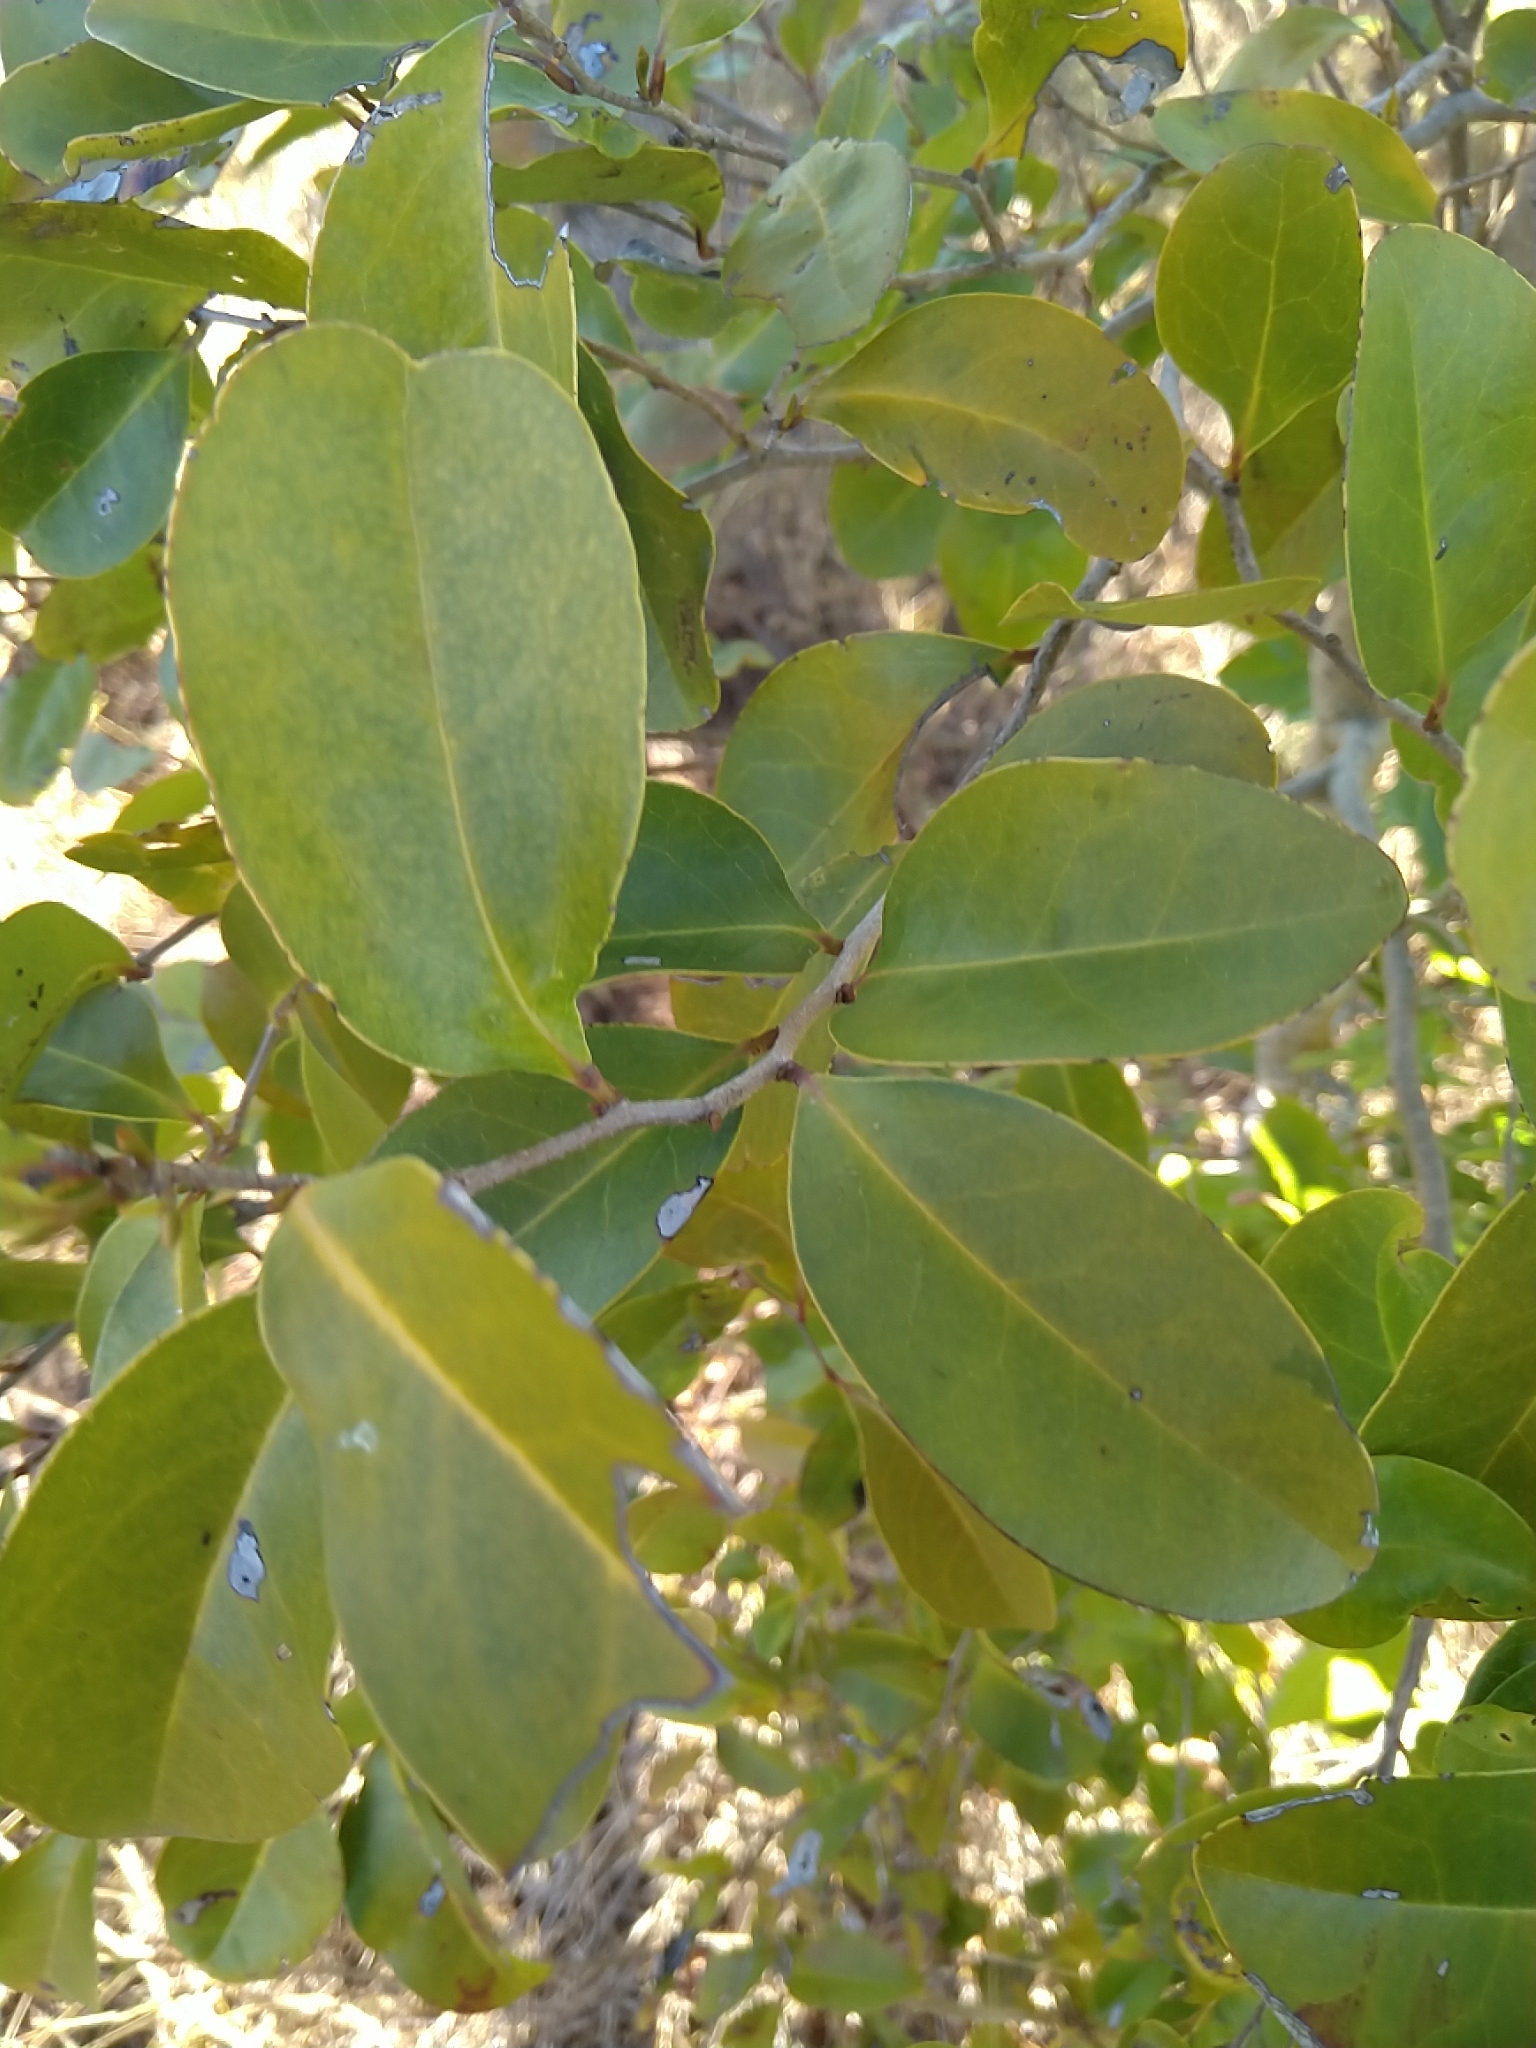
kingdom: Plantae
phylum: Tracheophyta
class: Magnoliopsida
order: Ericales
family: Ebenaceae
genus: Diospyros
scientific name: Diospyros geminata
